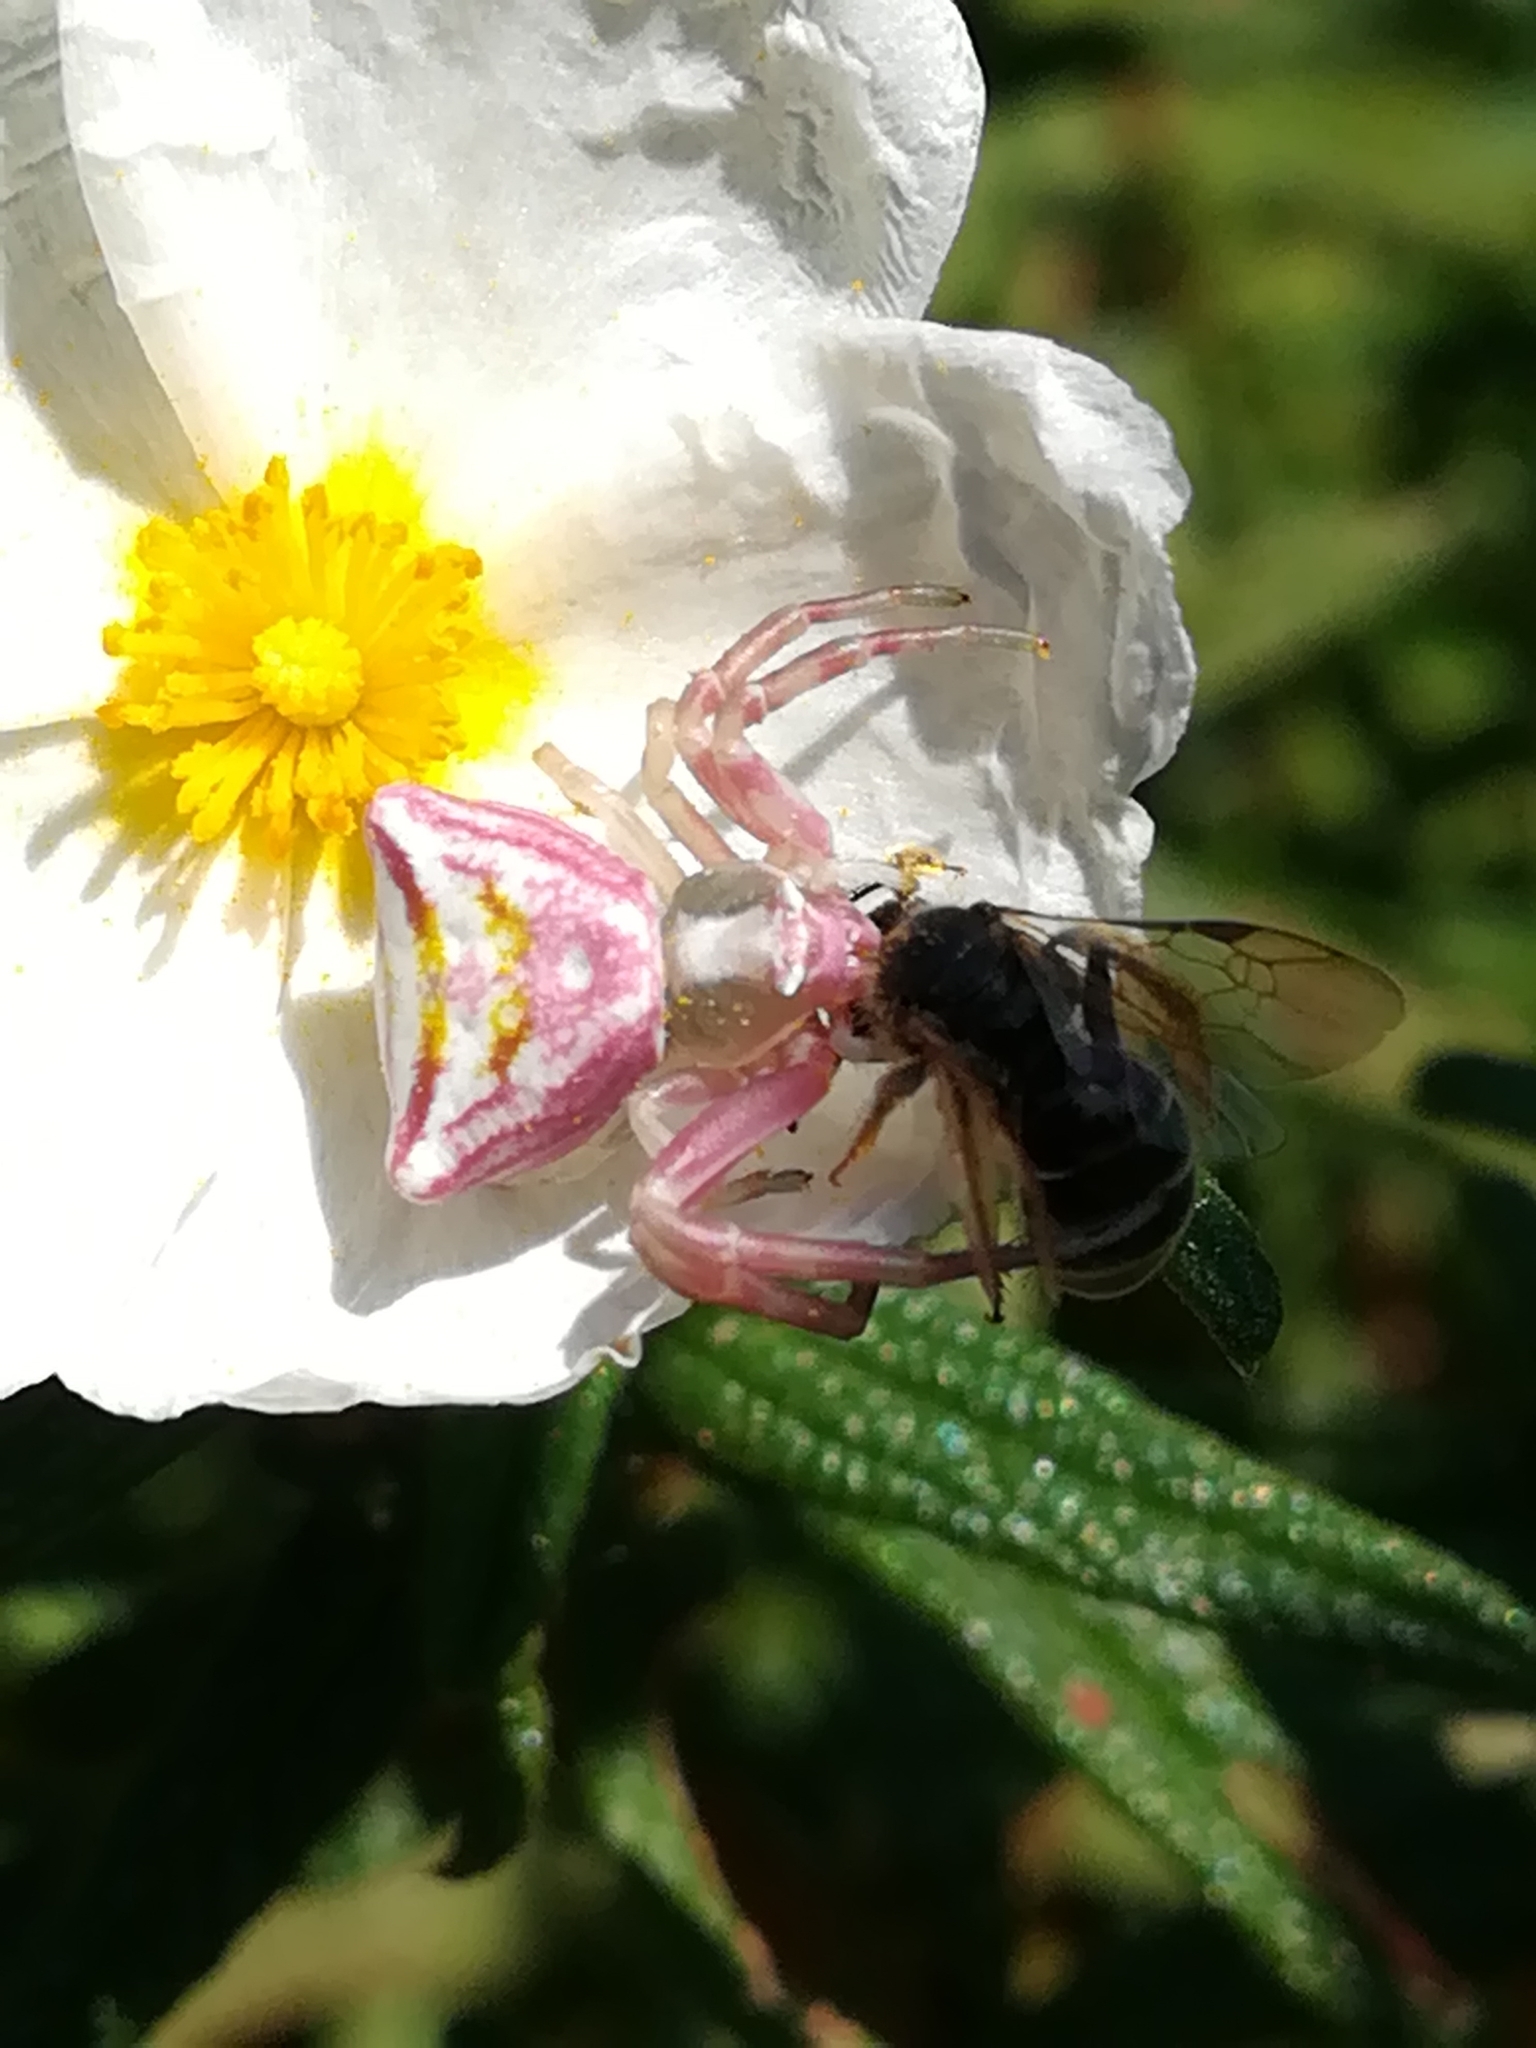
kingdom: Animalia
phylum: Arthropoda
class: Arachnida
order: Araneae
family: Thomisidae
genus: Thomisus
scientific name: Thomisus onustus
